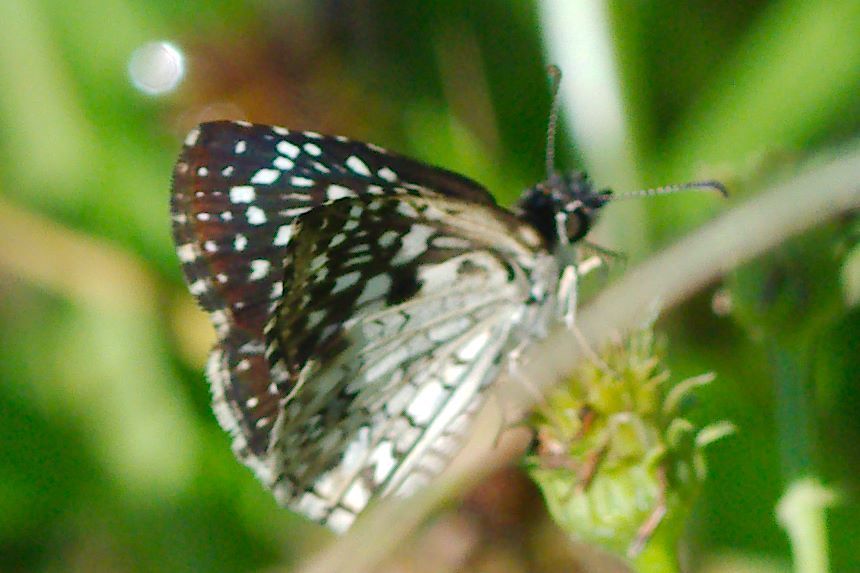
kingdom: Animalia
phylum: Arthropoda
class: Insecta
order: Lepidoptera
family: Hesperiidae
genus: Pyrgus
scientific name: Pyrgus oileus
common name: Tropical checkered-skipper
